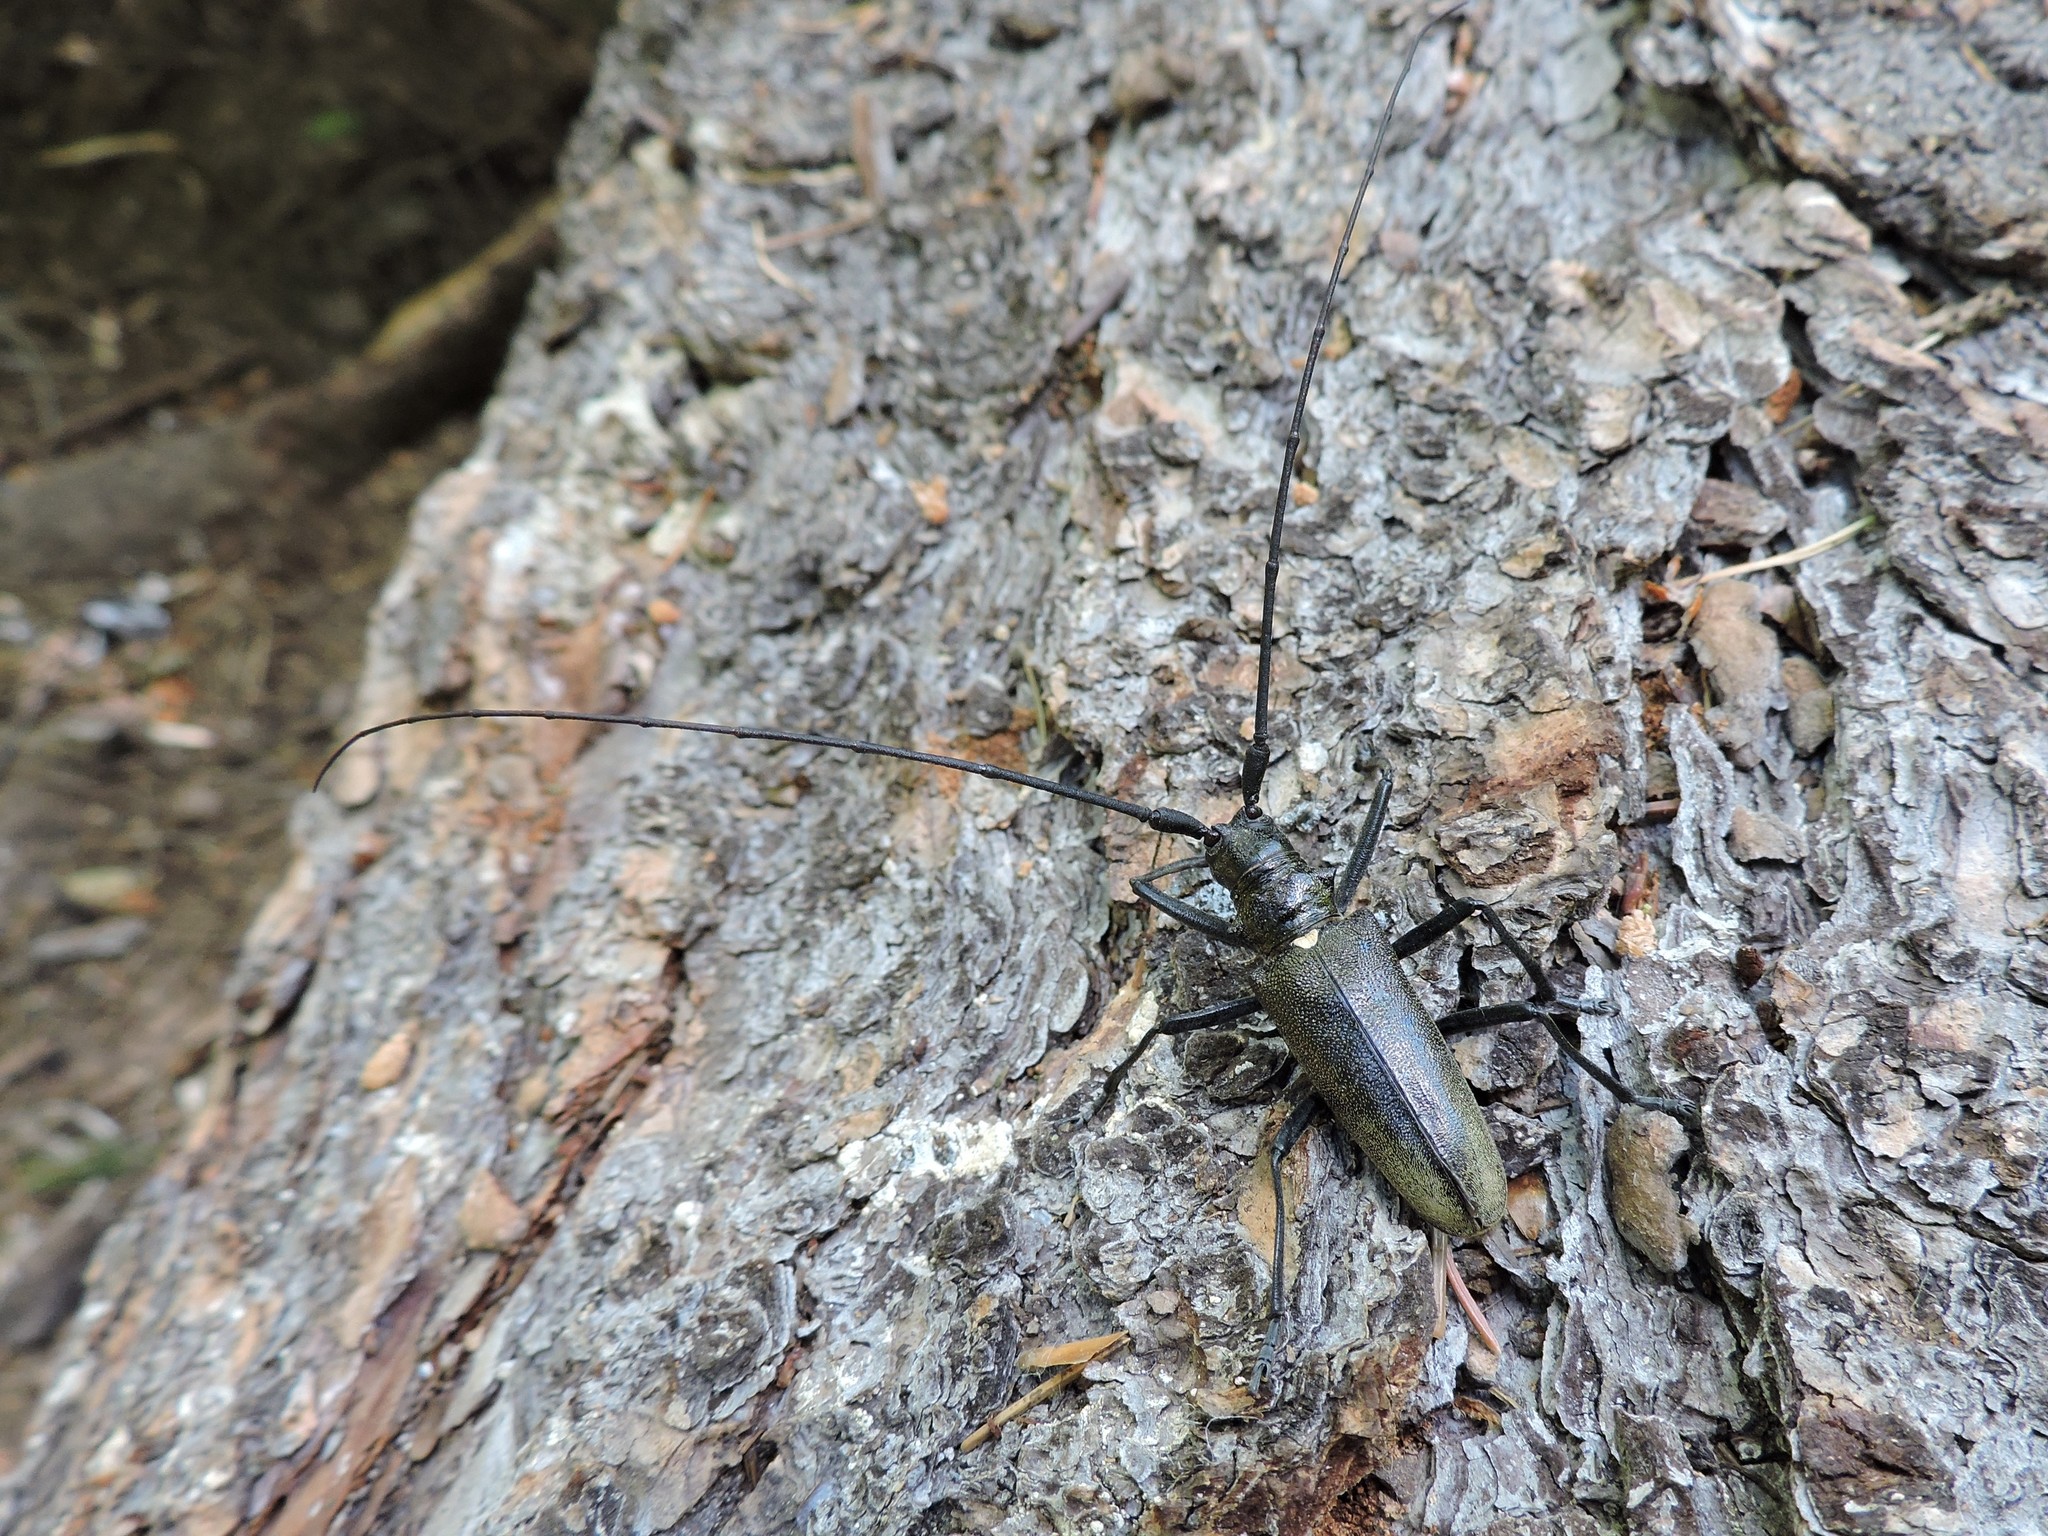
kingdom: Animalia
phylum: Arthropoda
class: Insecta
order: Coleoptera
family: Cerambycidae
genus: Monochamus
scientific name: Monochamus urussovii
